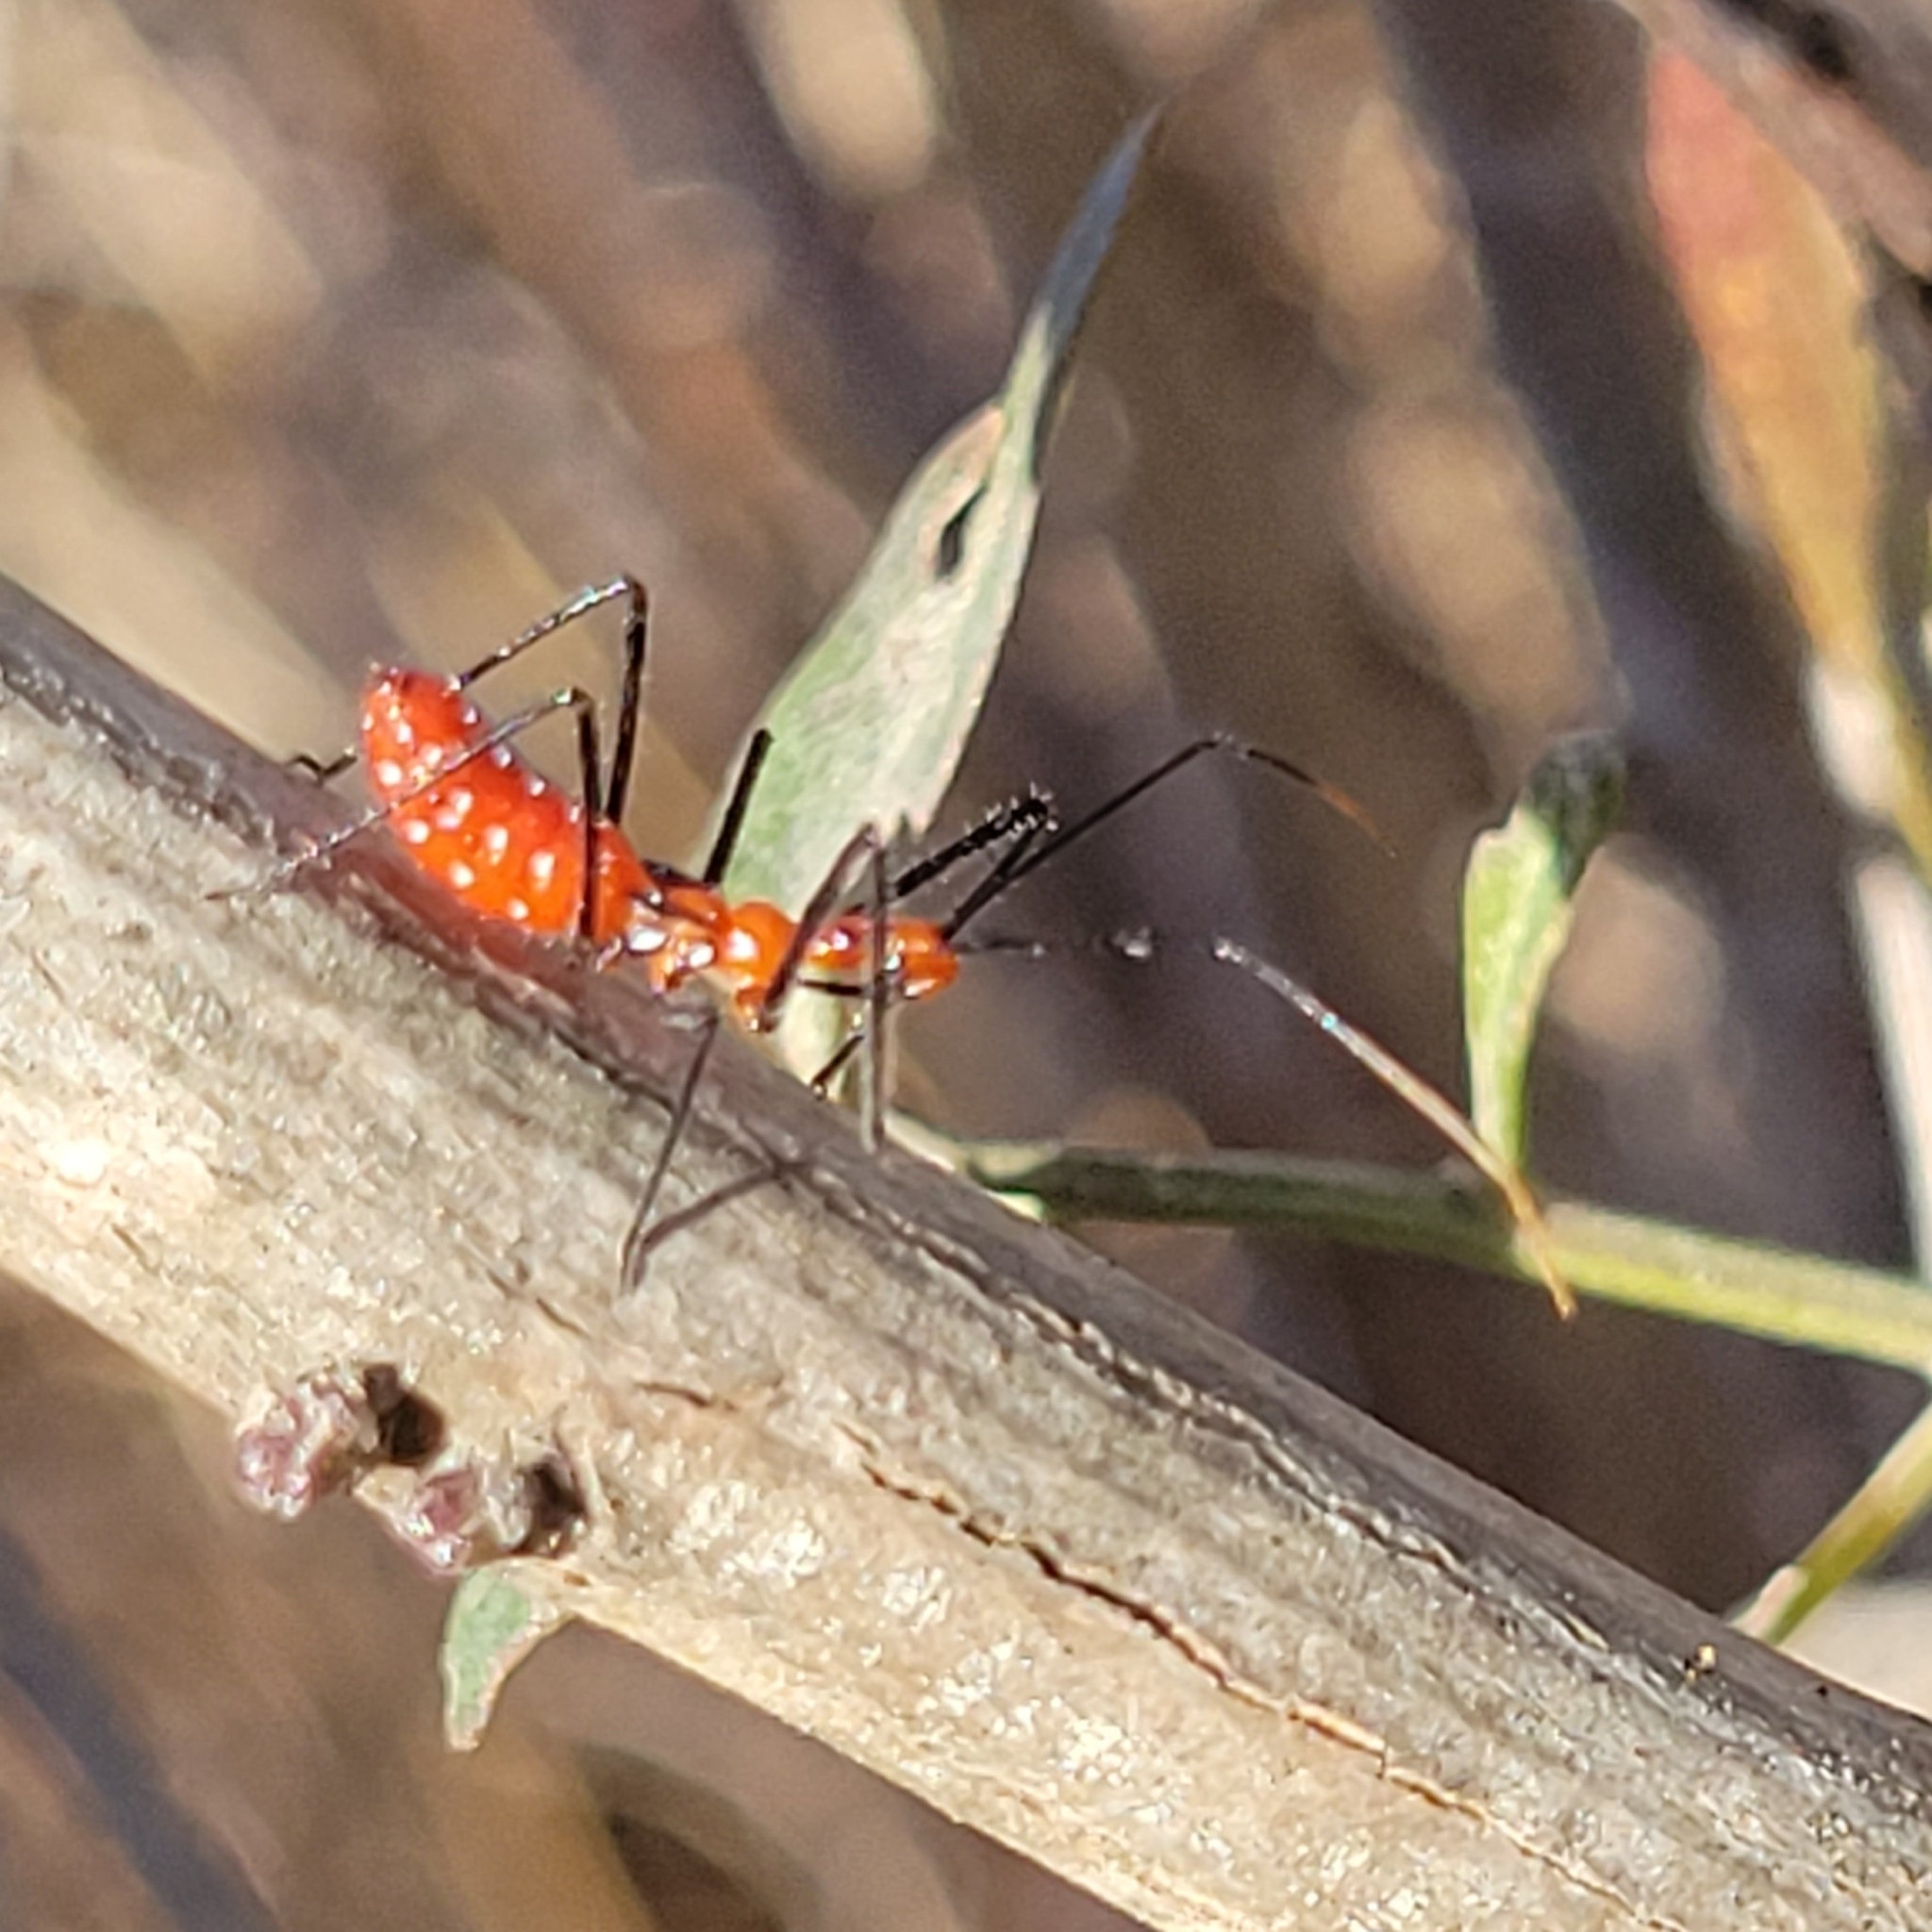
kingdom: Animalia
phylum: Arthropoda
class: Insecta
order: Hemiptera
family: Reduviidae
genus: Zelus
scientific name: Zelus longipes
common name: Milkweed assassin bug
